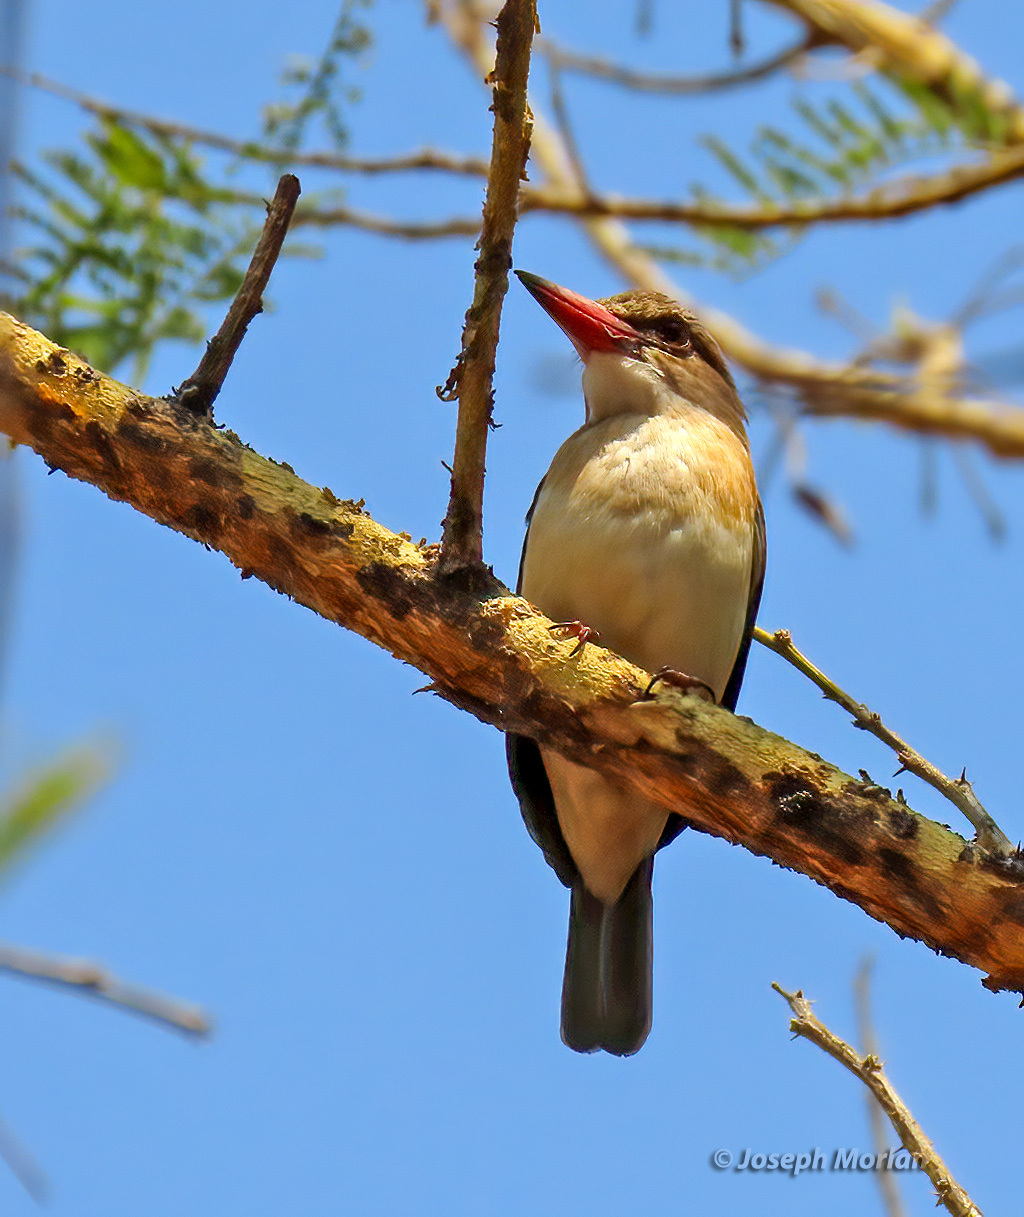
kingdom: Animalia
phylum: Chordata
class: Aves
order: Coraciiformes
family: Alcedinidae
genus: Halcyon
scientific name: Halcyon albiventris
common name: Brown-hooded kingfisher
